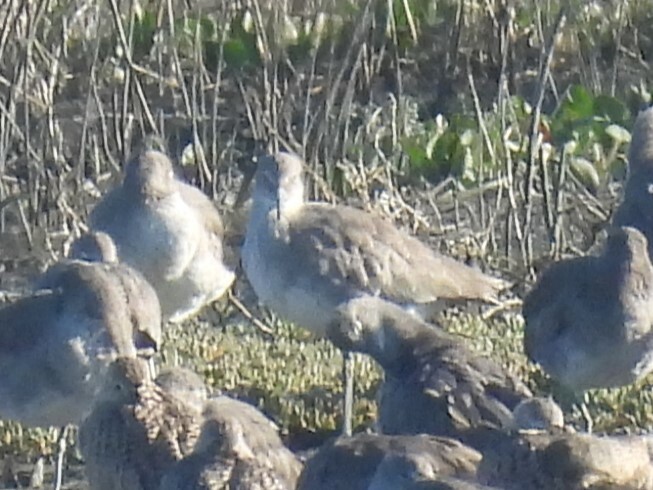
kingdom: Animalia
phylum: Chordata
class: Aves
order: Charadriiformes
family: Scolopacidae
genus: Tringa
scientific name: Tringa semipalmata
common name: Willet
